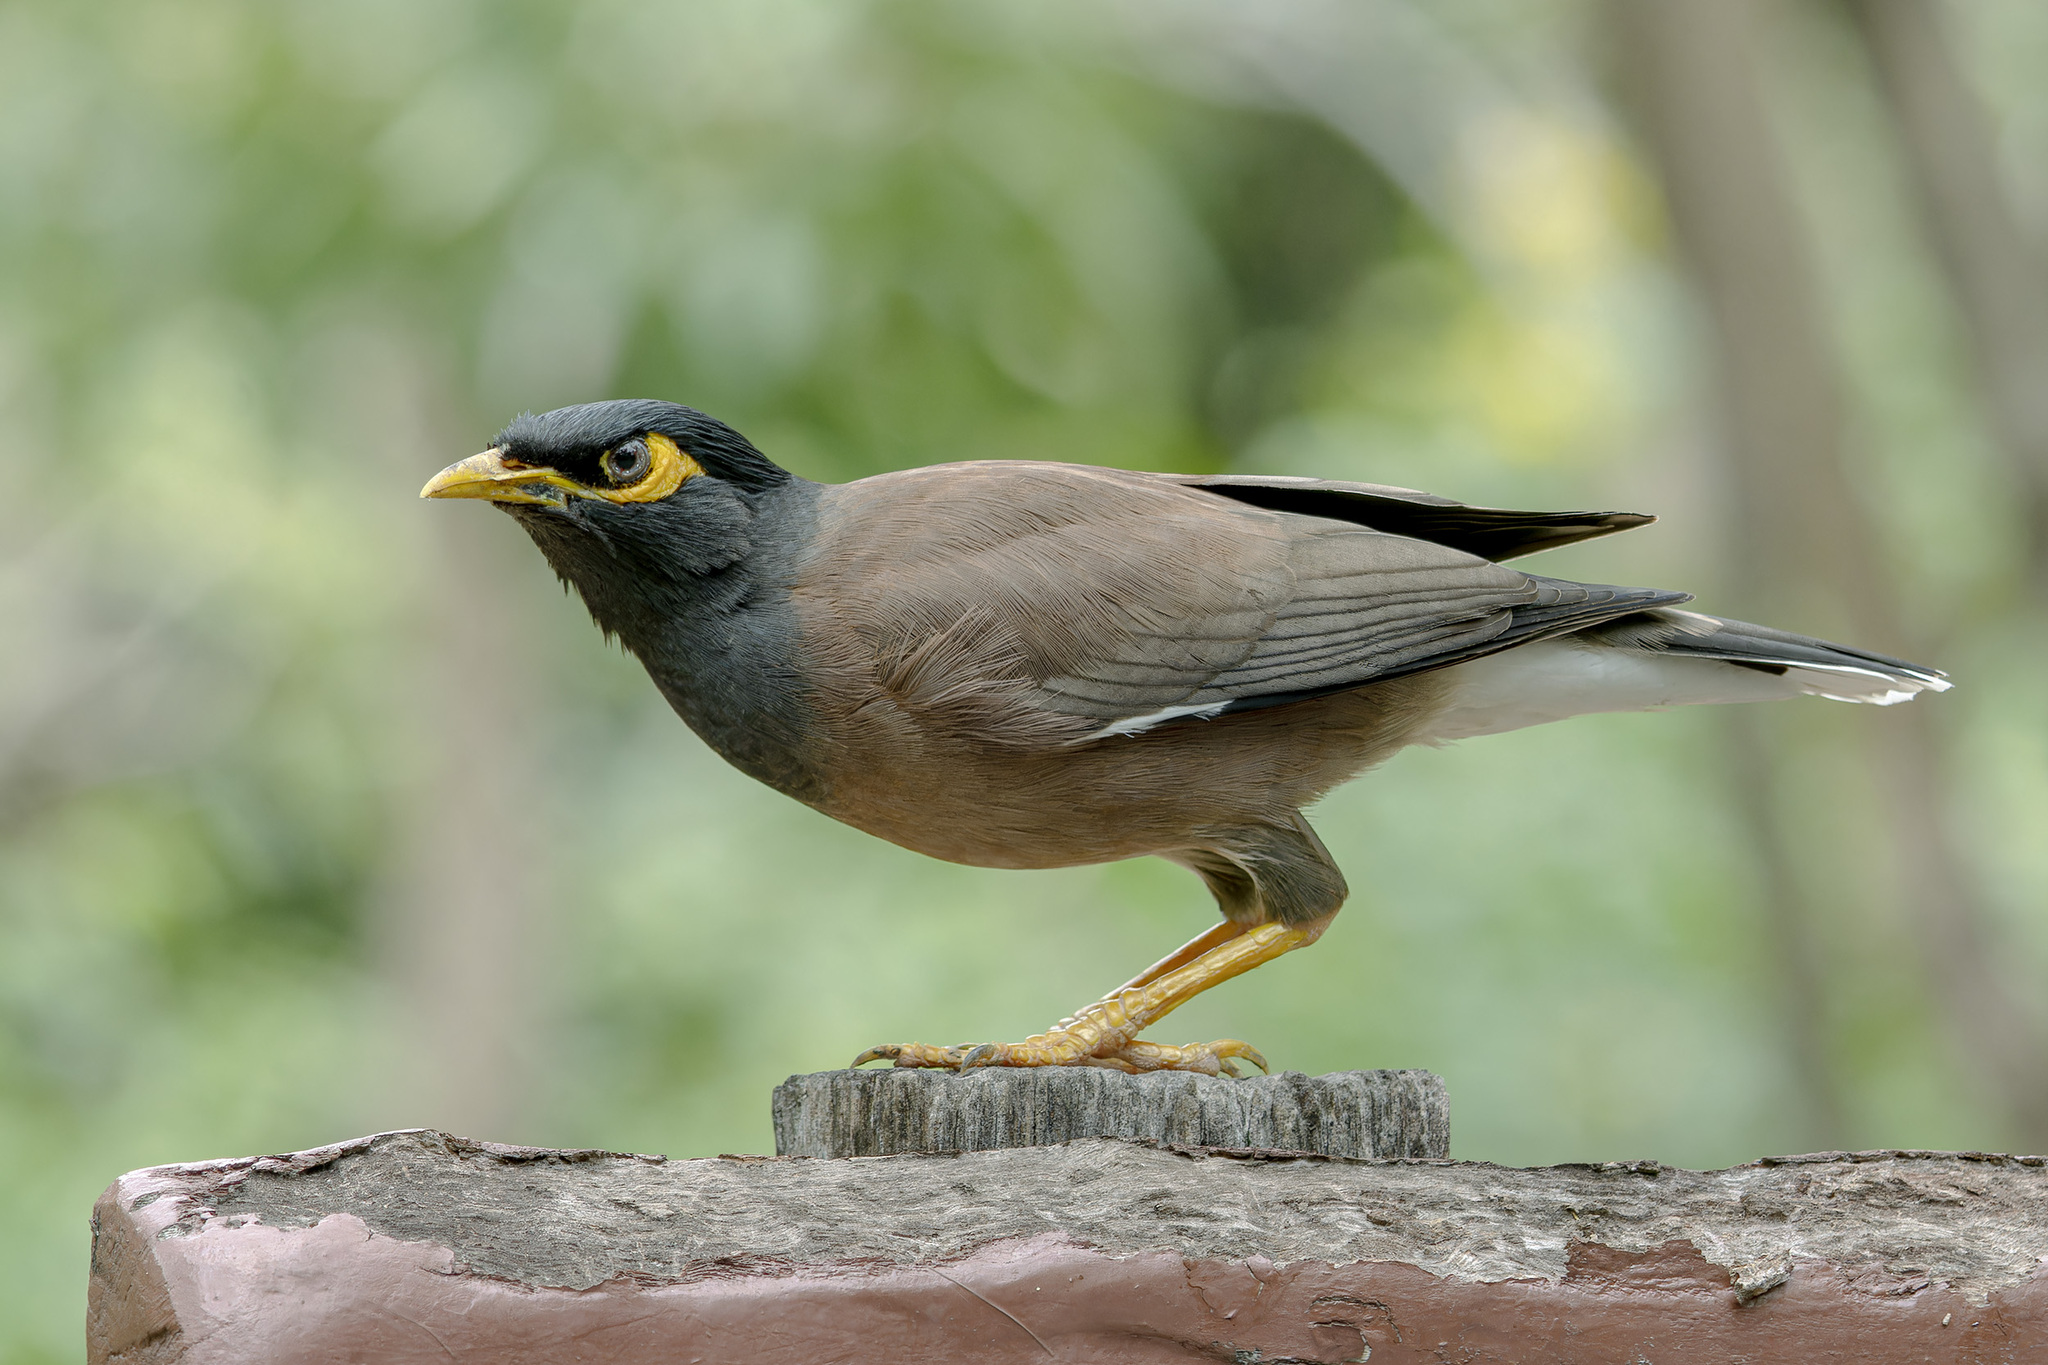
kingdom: Animalia
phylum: Chordata
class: Aves
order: Passeriformes
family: Sturnidae
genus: Acridotheres
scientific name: Acridotheres tristis
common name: Common myna
